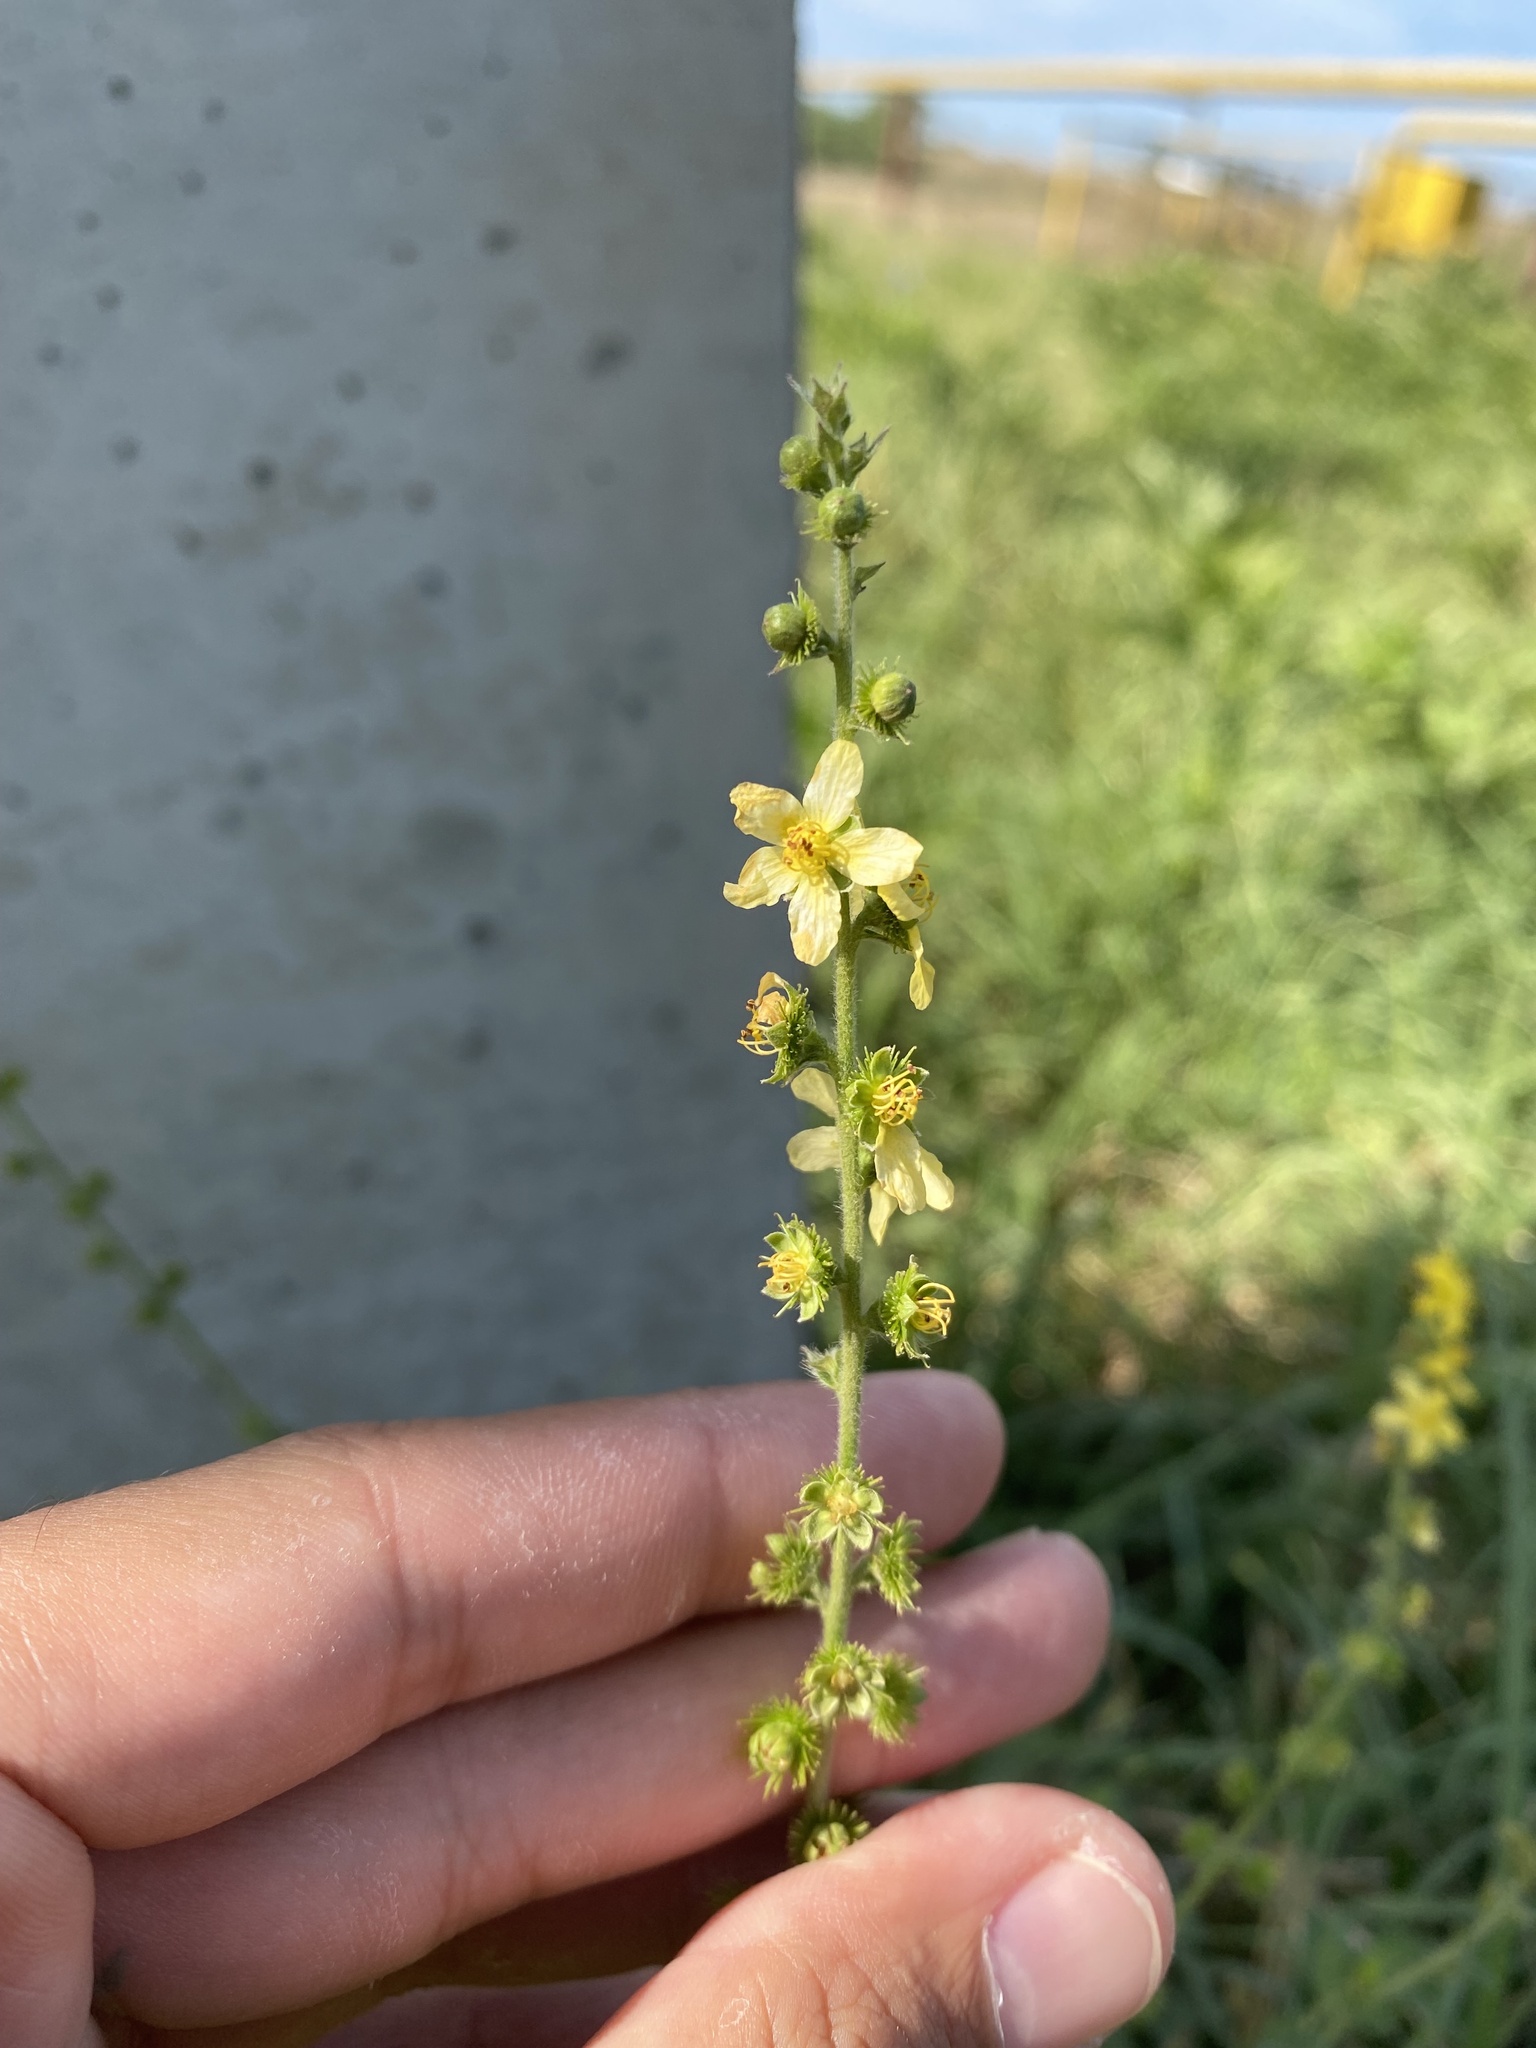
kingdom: Plantae
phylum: Tracheophyta
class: Magnoliopsida
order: Rosales
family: Rosaceae
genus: Agrimonia
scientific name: Agrimonia eupatoria
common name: Agrimony
